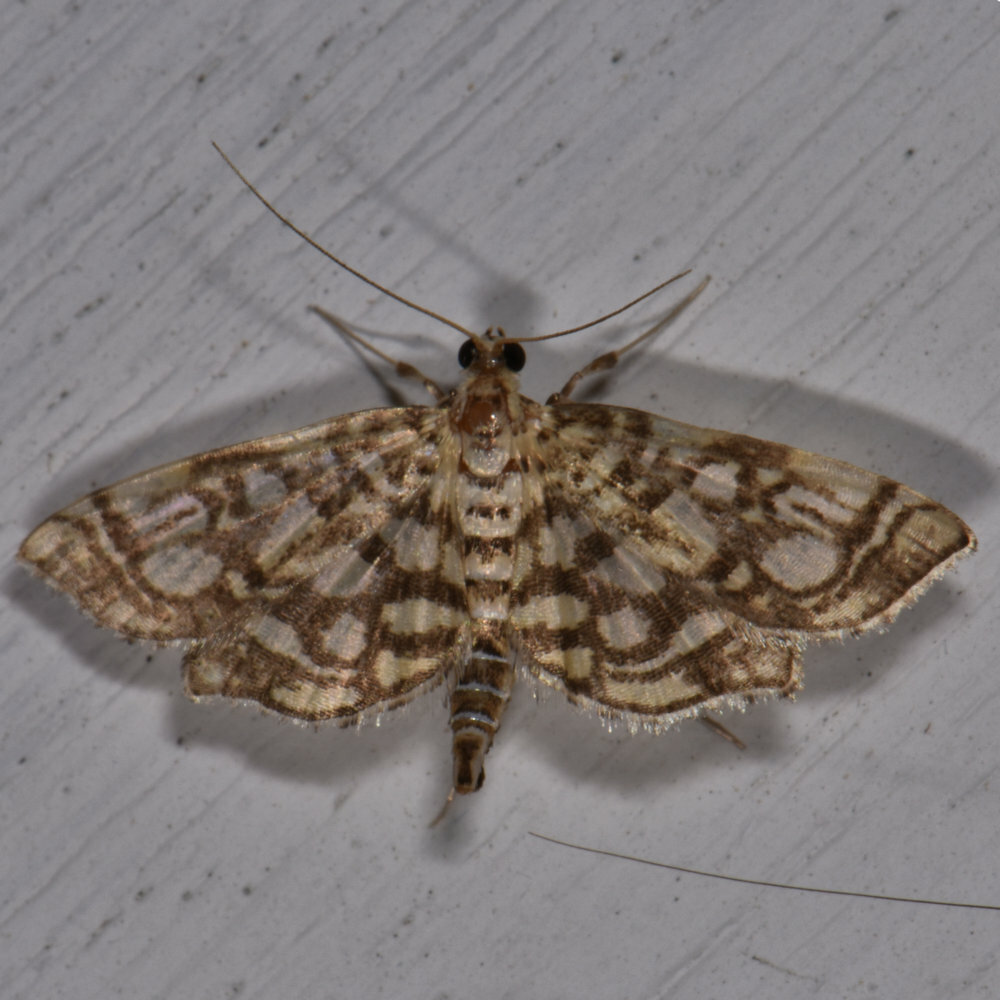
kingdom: Animalia
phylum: Arthropoda
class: Insecta
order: Lepidoptera
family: Crambidae
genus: Lygropia
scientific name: Lygropia rivulalis
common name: Bog lygropia moth
